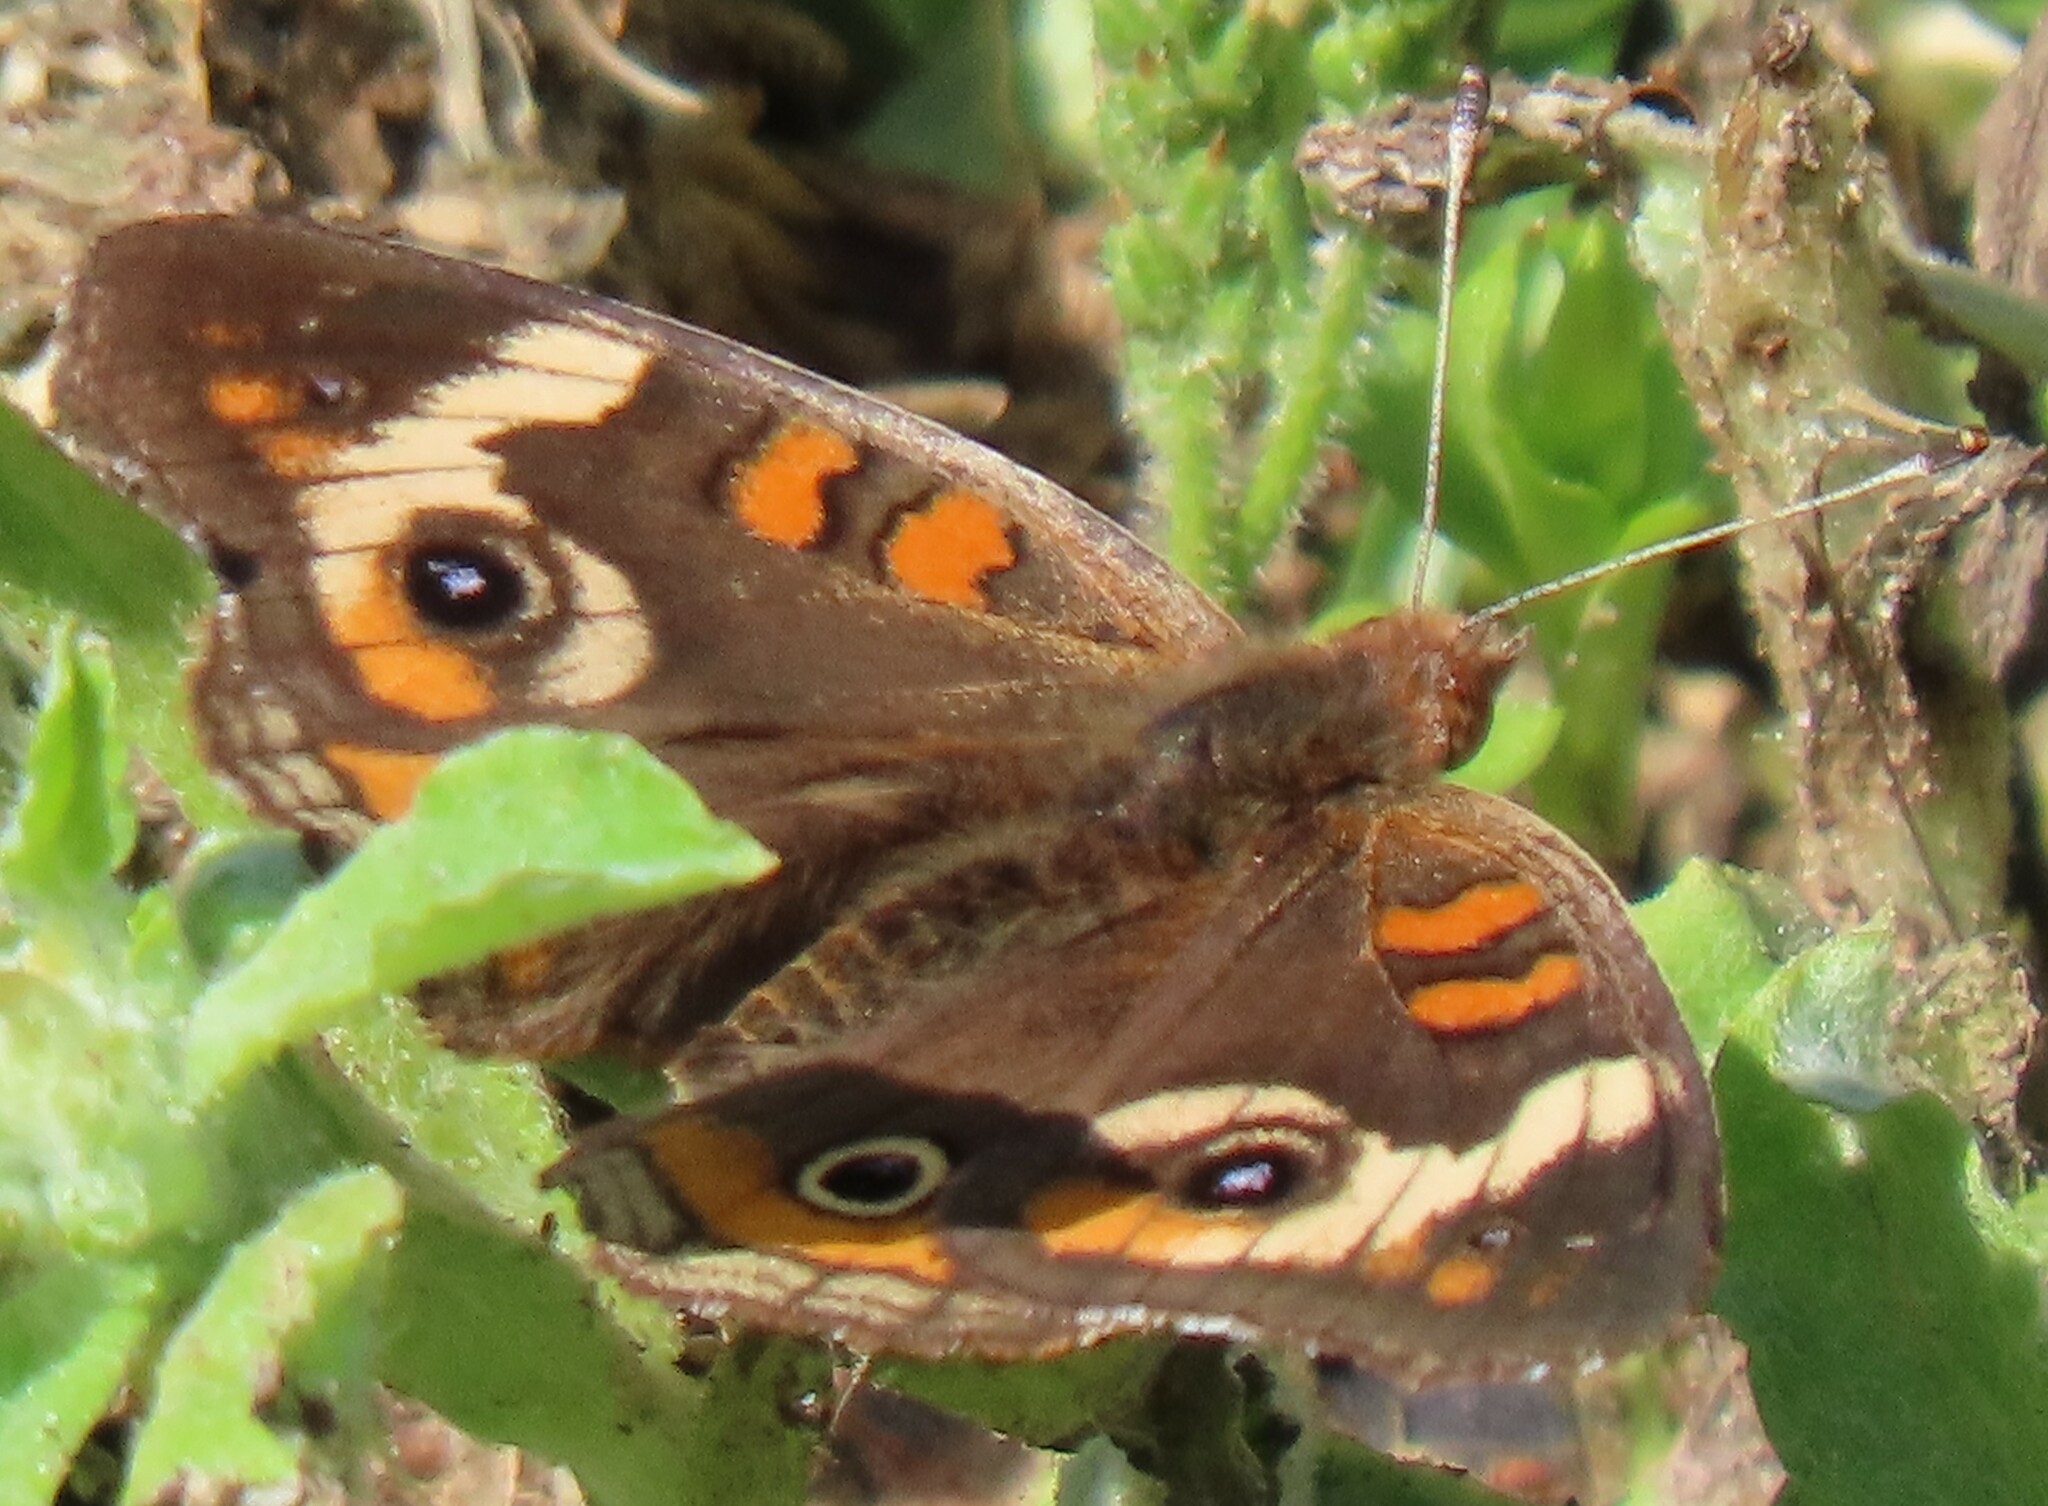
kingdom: Animalia
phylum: Arthropoda
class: Insecta
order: Lepidoptera
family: Nymphalidae
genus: Junonia
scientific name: Junonia coenia
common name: Common buckeye
